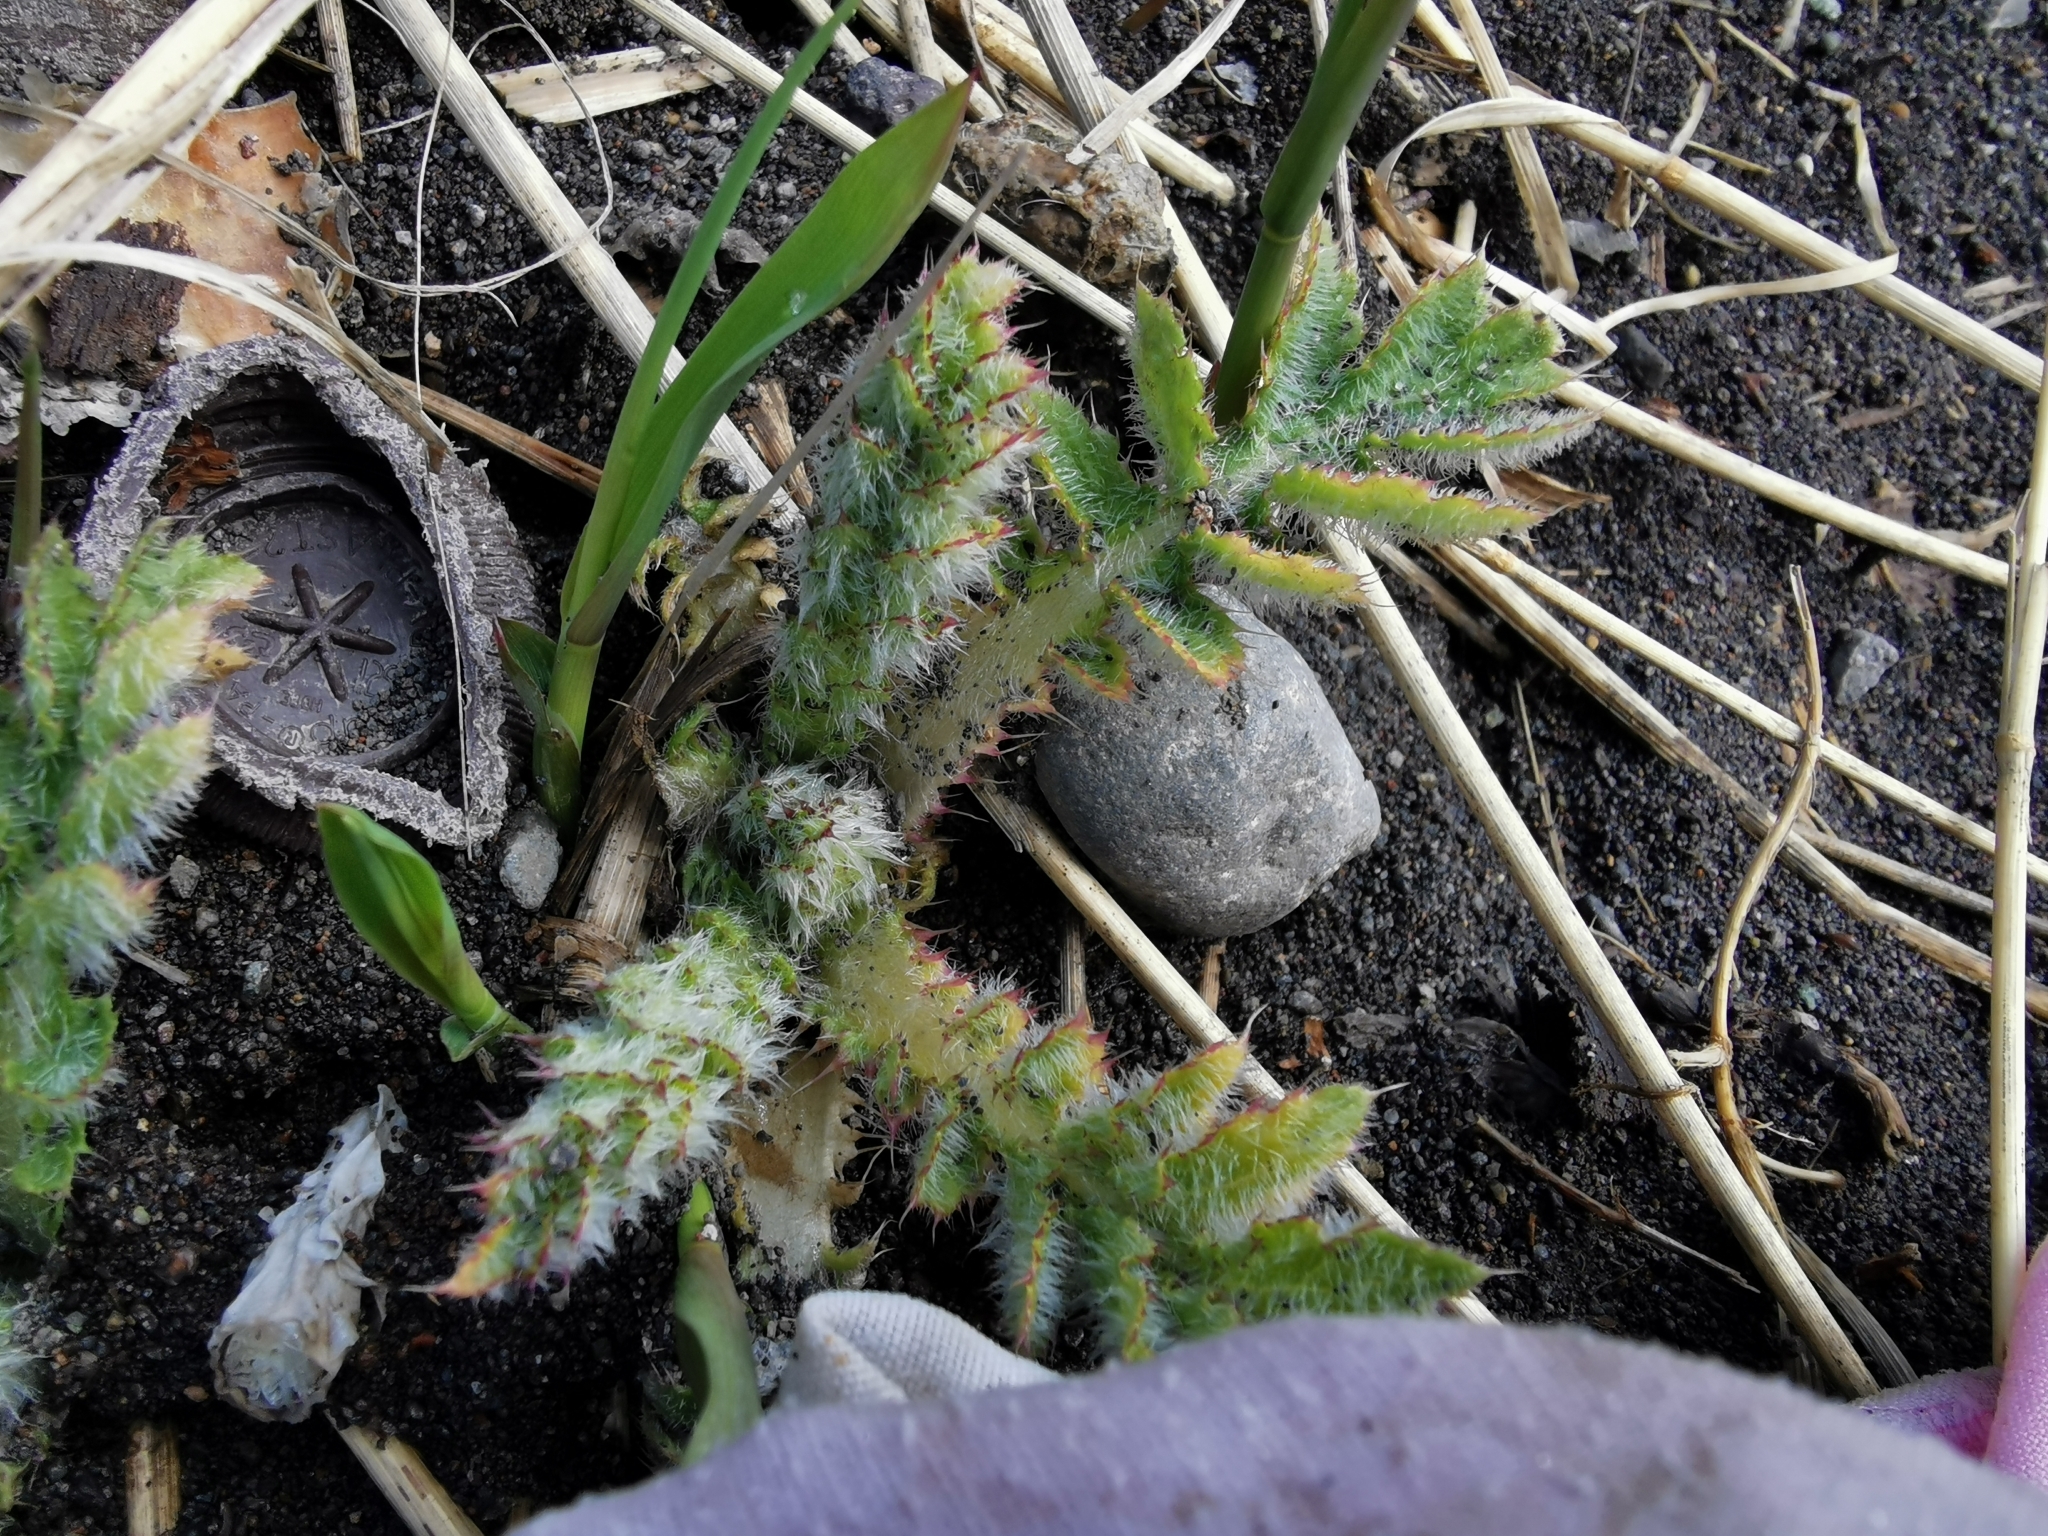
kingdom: Plantae
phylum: Tracheophyta
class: Magnoliopsida
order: Asterales
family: Asteraceae
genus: Cirsium
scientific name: Cirsium kamtschaticum
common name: Kamchatka thistle
